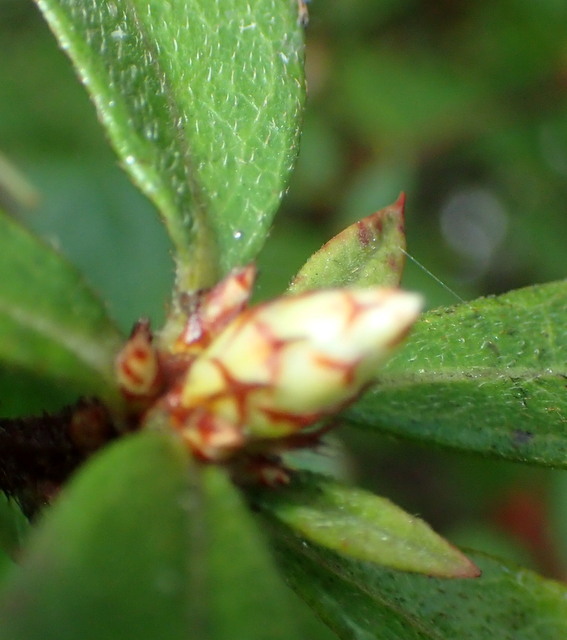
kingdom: Plantae
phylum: Tracheophyta
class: Magnoliopsida
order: Ericales
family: Ericaceae
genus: Rhododendron
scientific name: Rhododendron serrulatum
